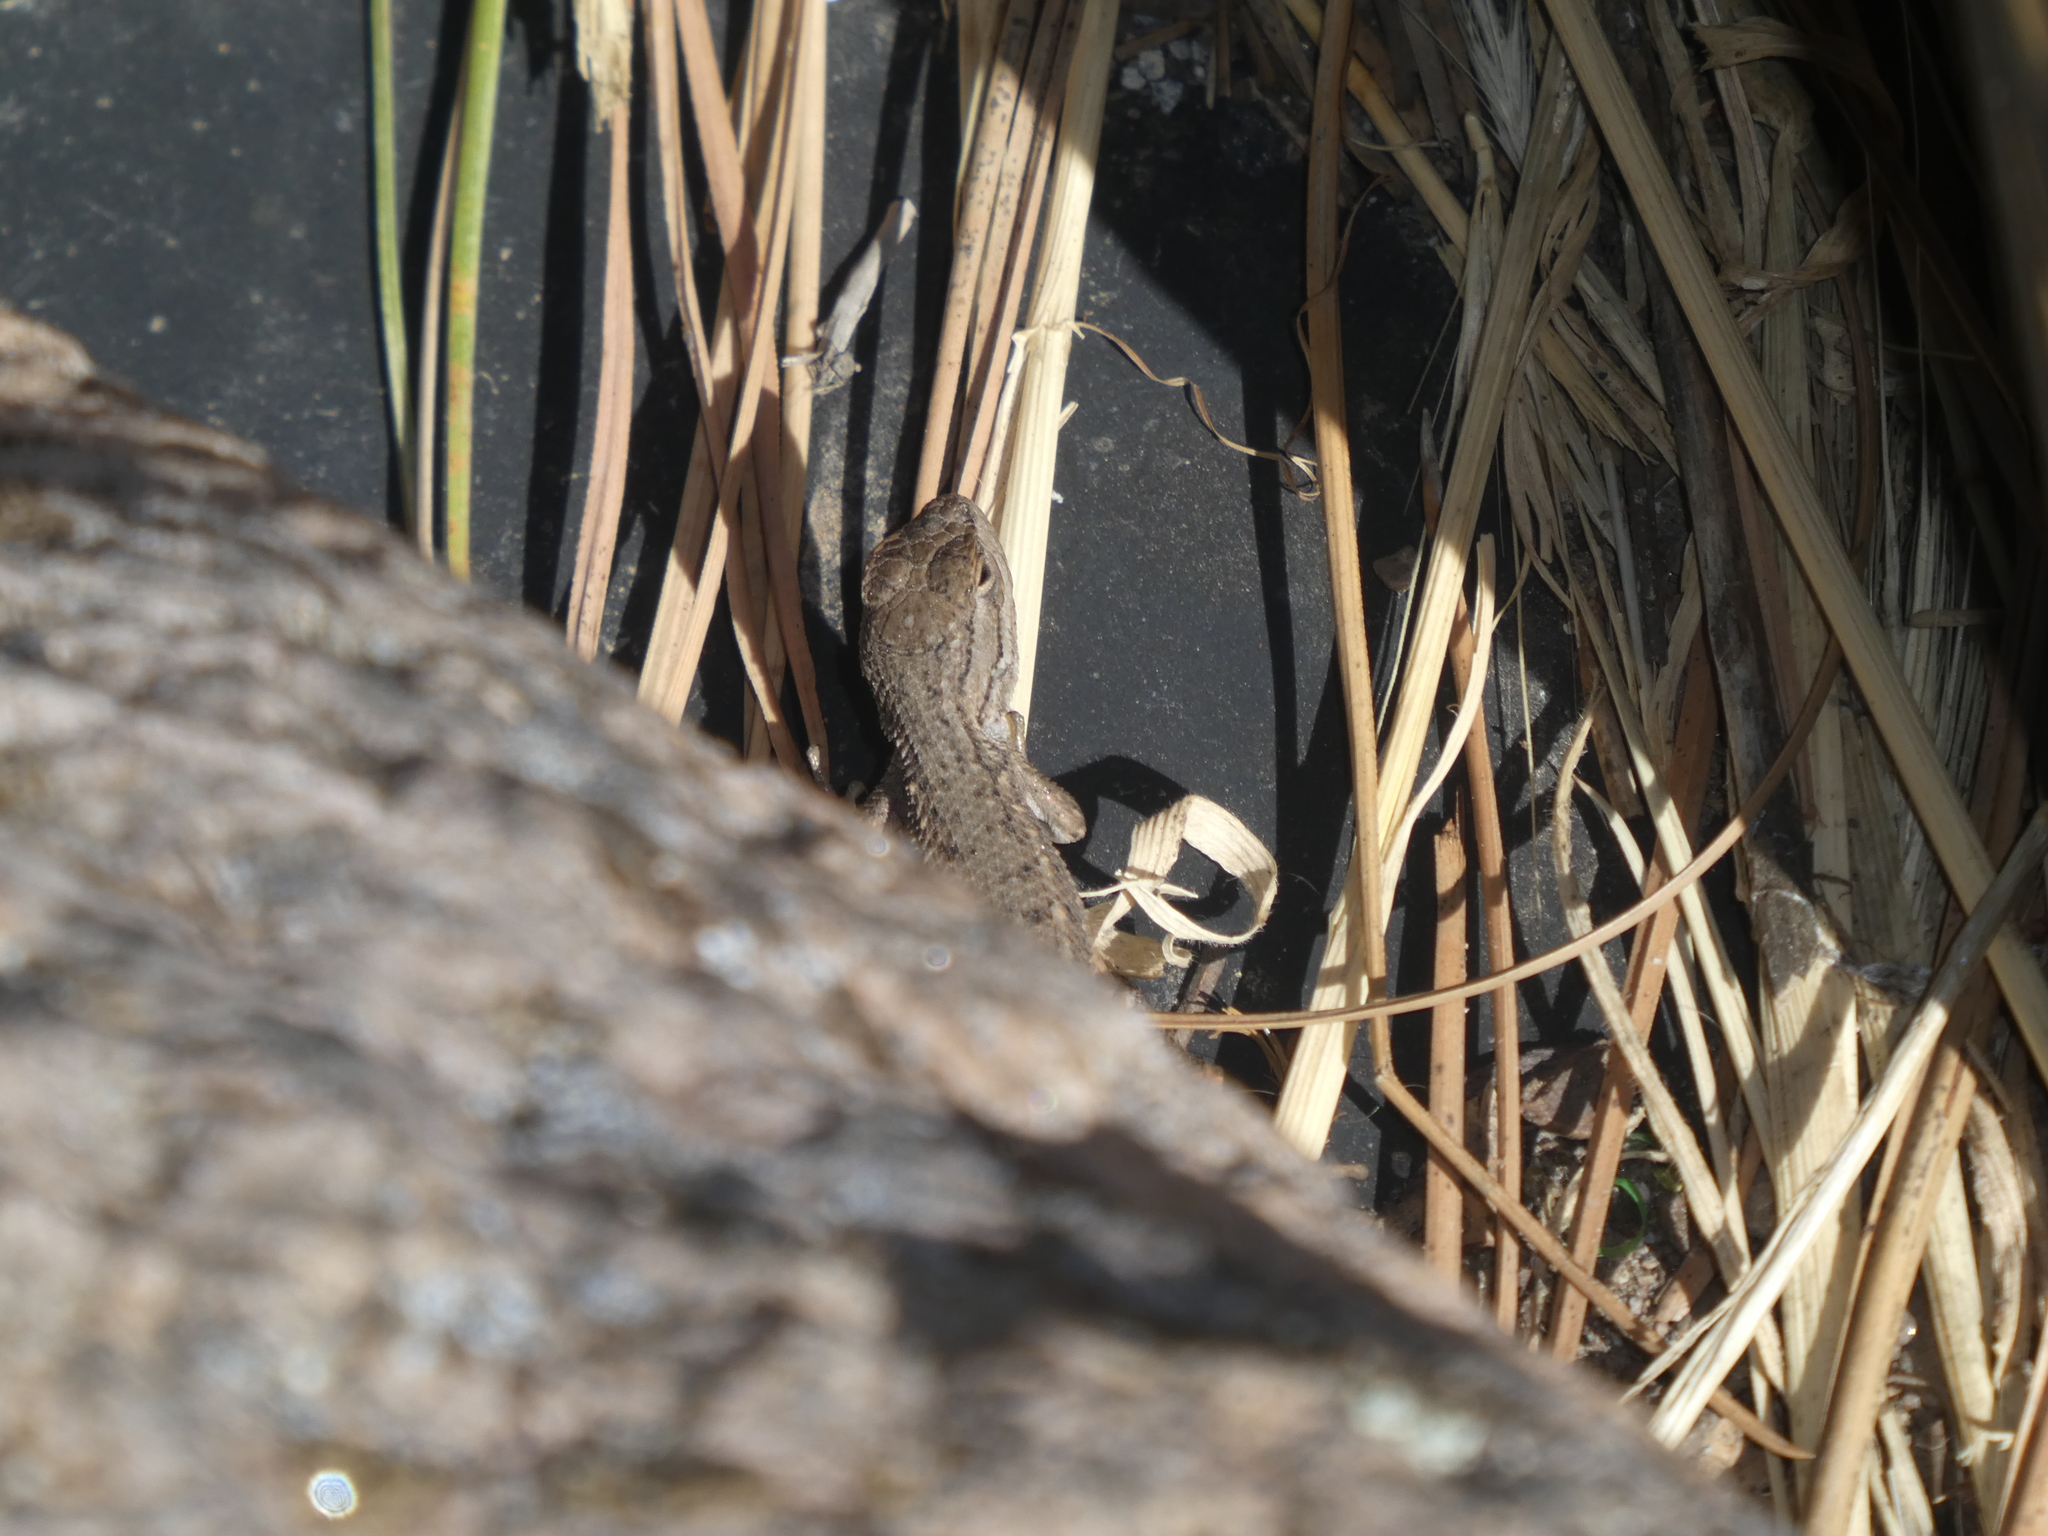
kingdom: Animalia
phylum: Chordata
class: Squamata
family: Phrynosomatidae
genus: Sceloporus
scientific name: Sceloporus tristichus
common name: Plateau fence lizard
